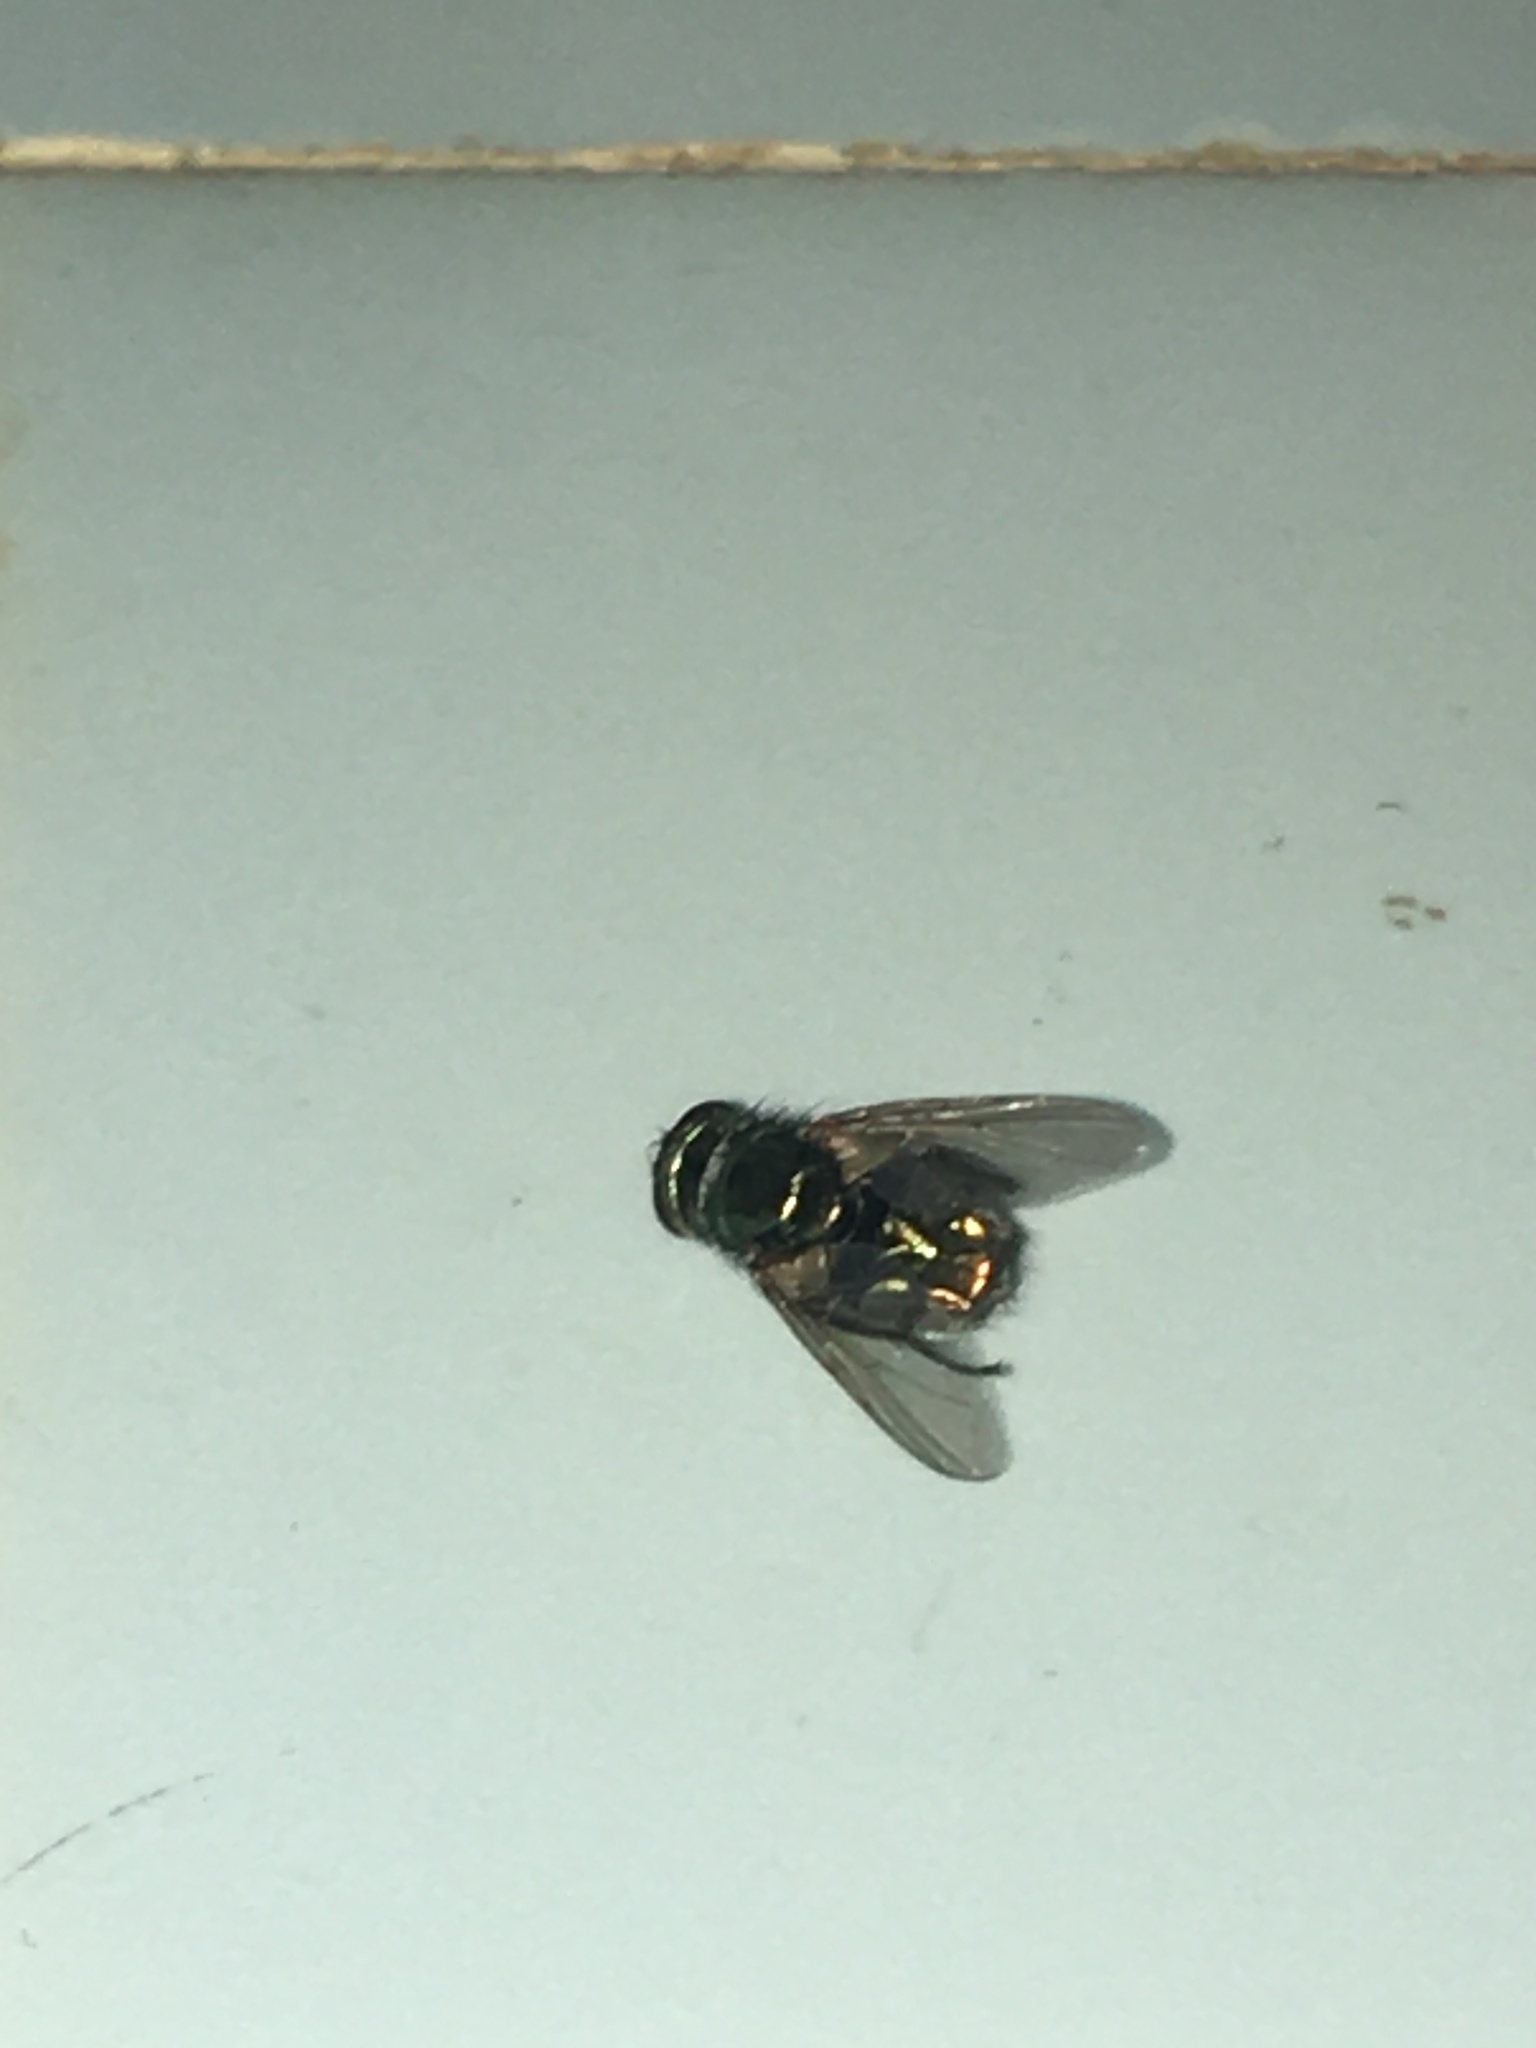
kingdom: Animalia
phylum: Arthropoda
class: Insecta
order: Diptera
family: Muscidae
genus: Neomyia
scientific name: Neomyia cornicina
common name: House fly
